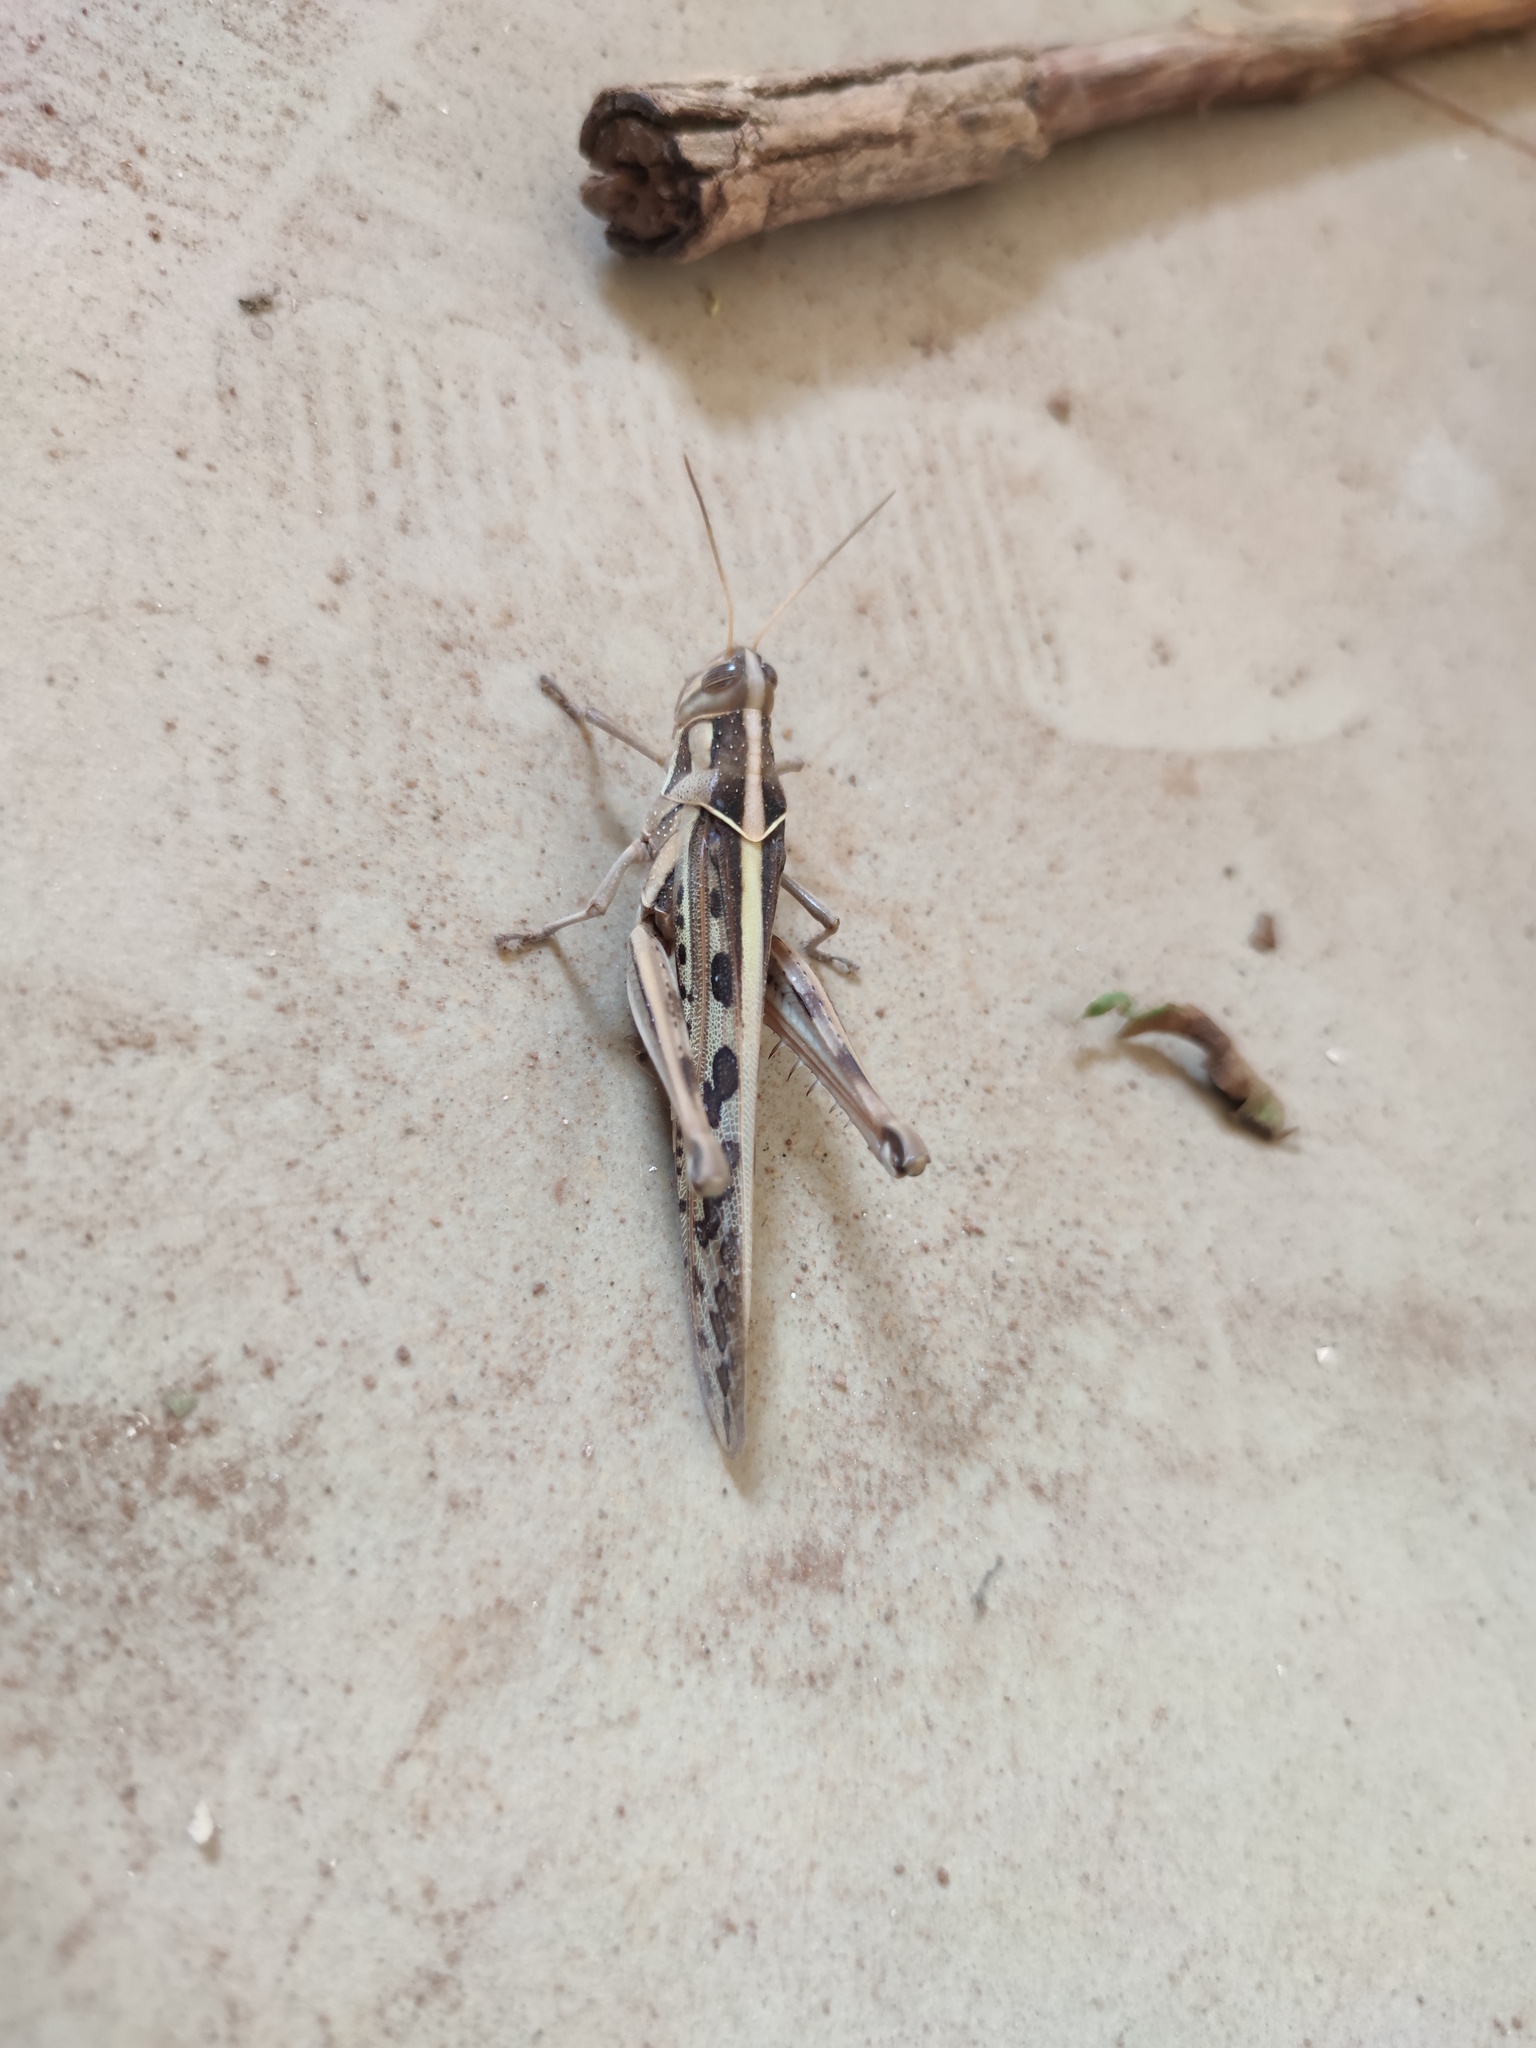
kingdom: Animalia
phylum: Arthropoda
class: Insecta
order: Orthoptera
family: Acrididae
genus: Cyrtacanthacris
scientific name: Cyrtacanthacris tatarica
